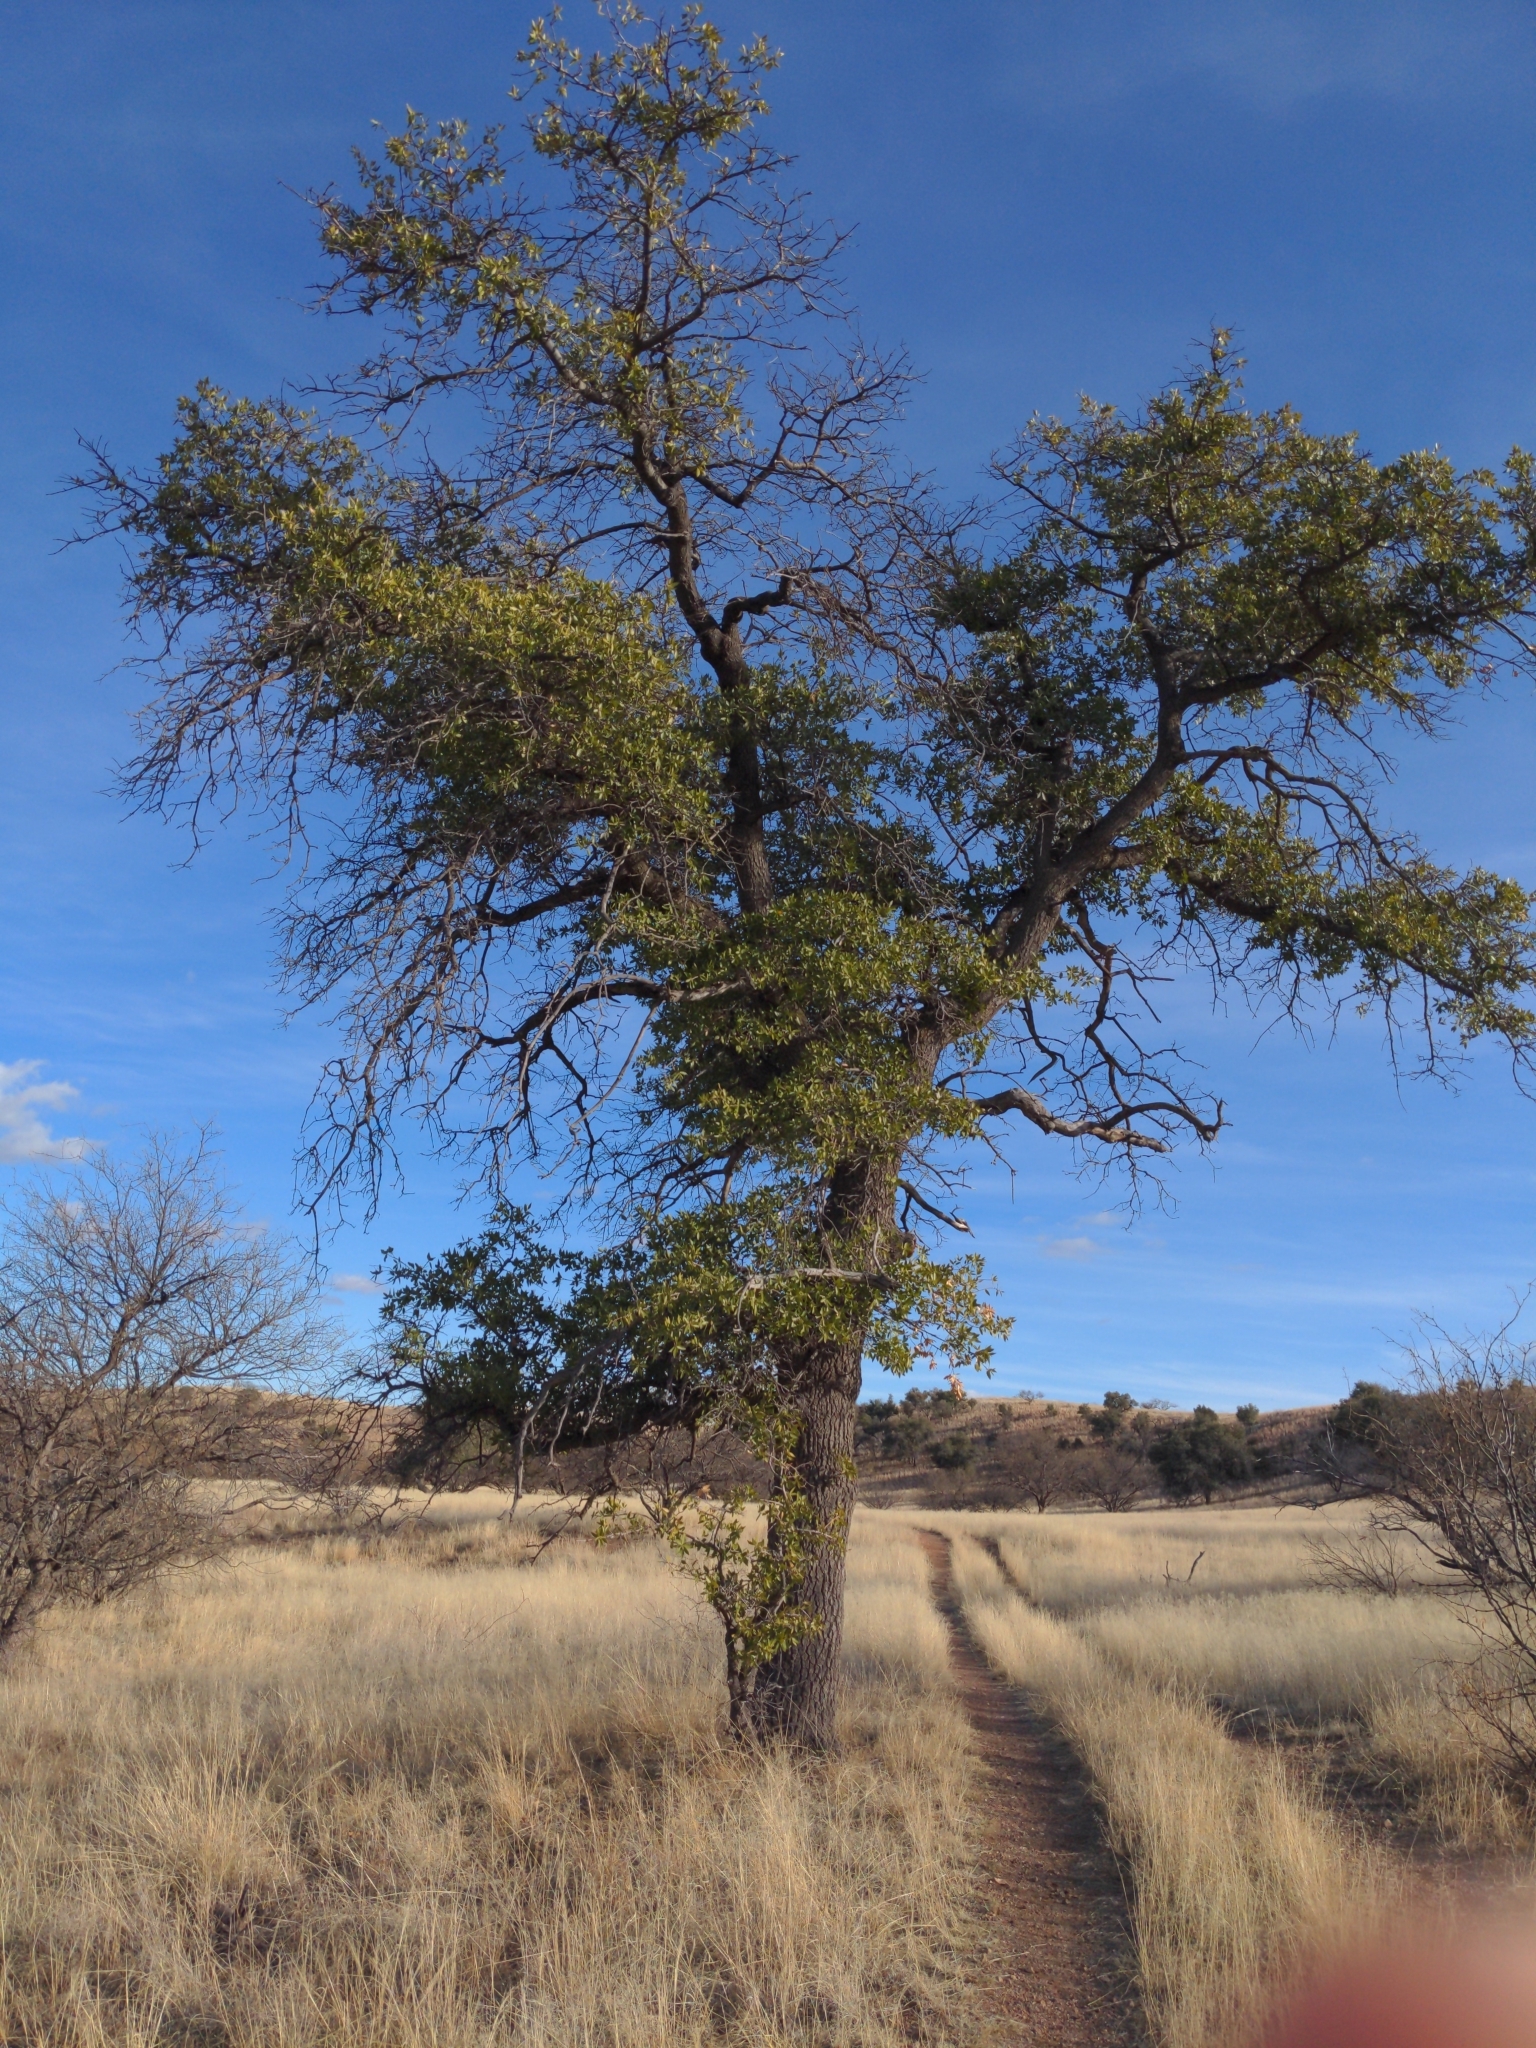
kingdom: Plantae
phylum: Tracheophyta
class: Magnoliopsida
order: Fagales
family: Fagaceae
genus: Quercus
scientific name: Quercus emoryi
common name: Emory oak
